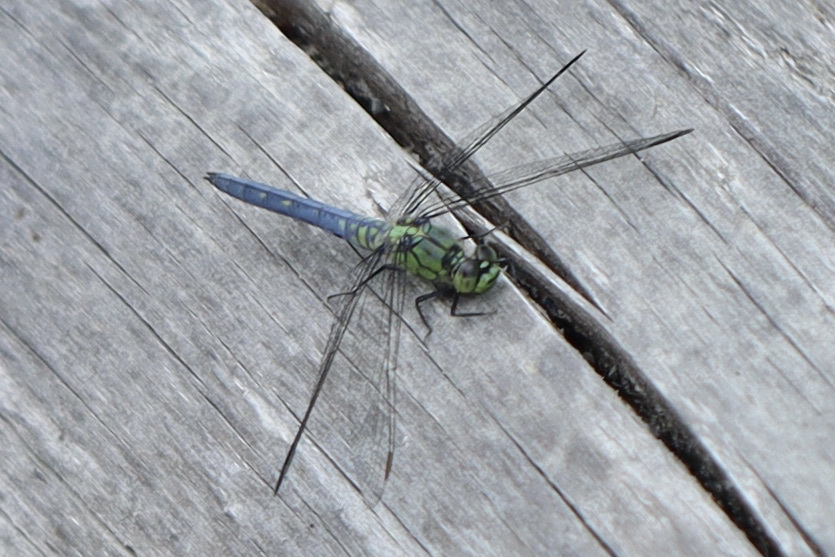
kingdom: Animalia
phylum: Arthropoda
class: Insecta
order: Odonata
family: Libellulidae
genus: Erythemis
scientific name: Erythemis collocata
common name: Western pondhawk
